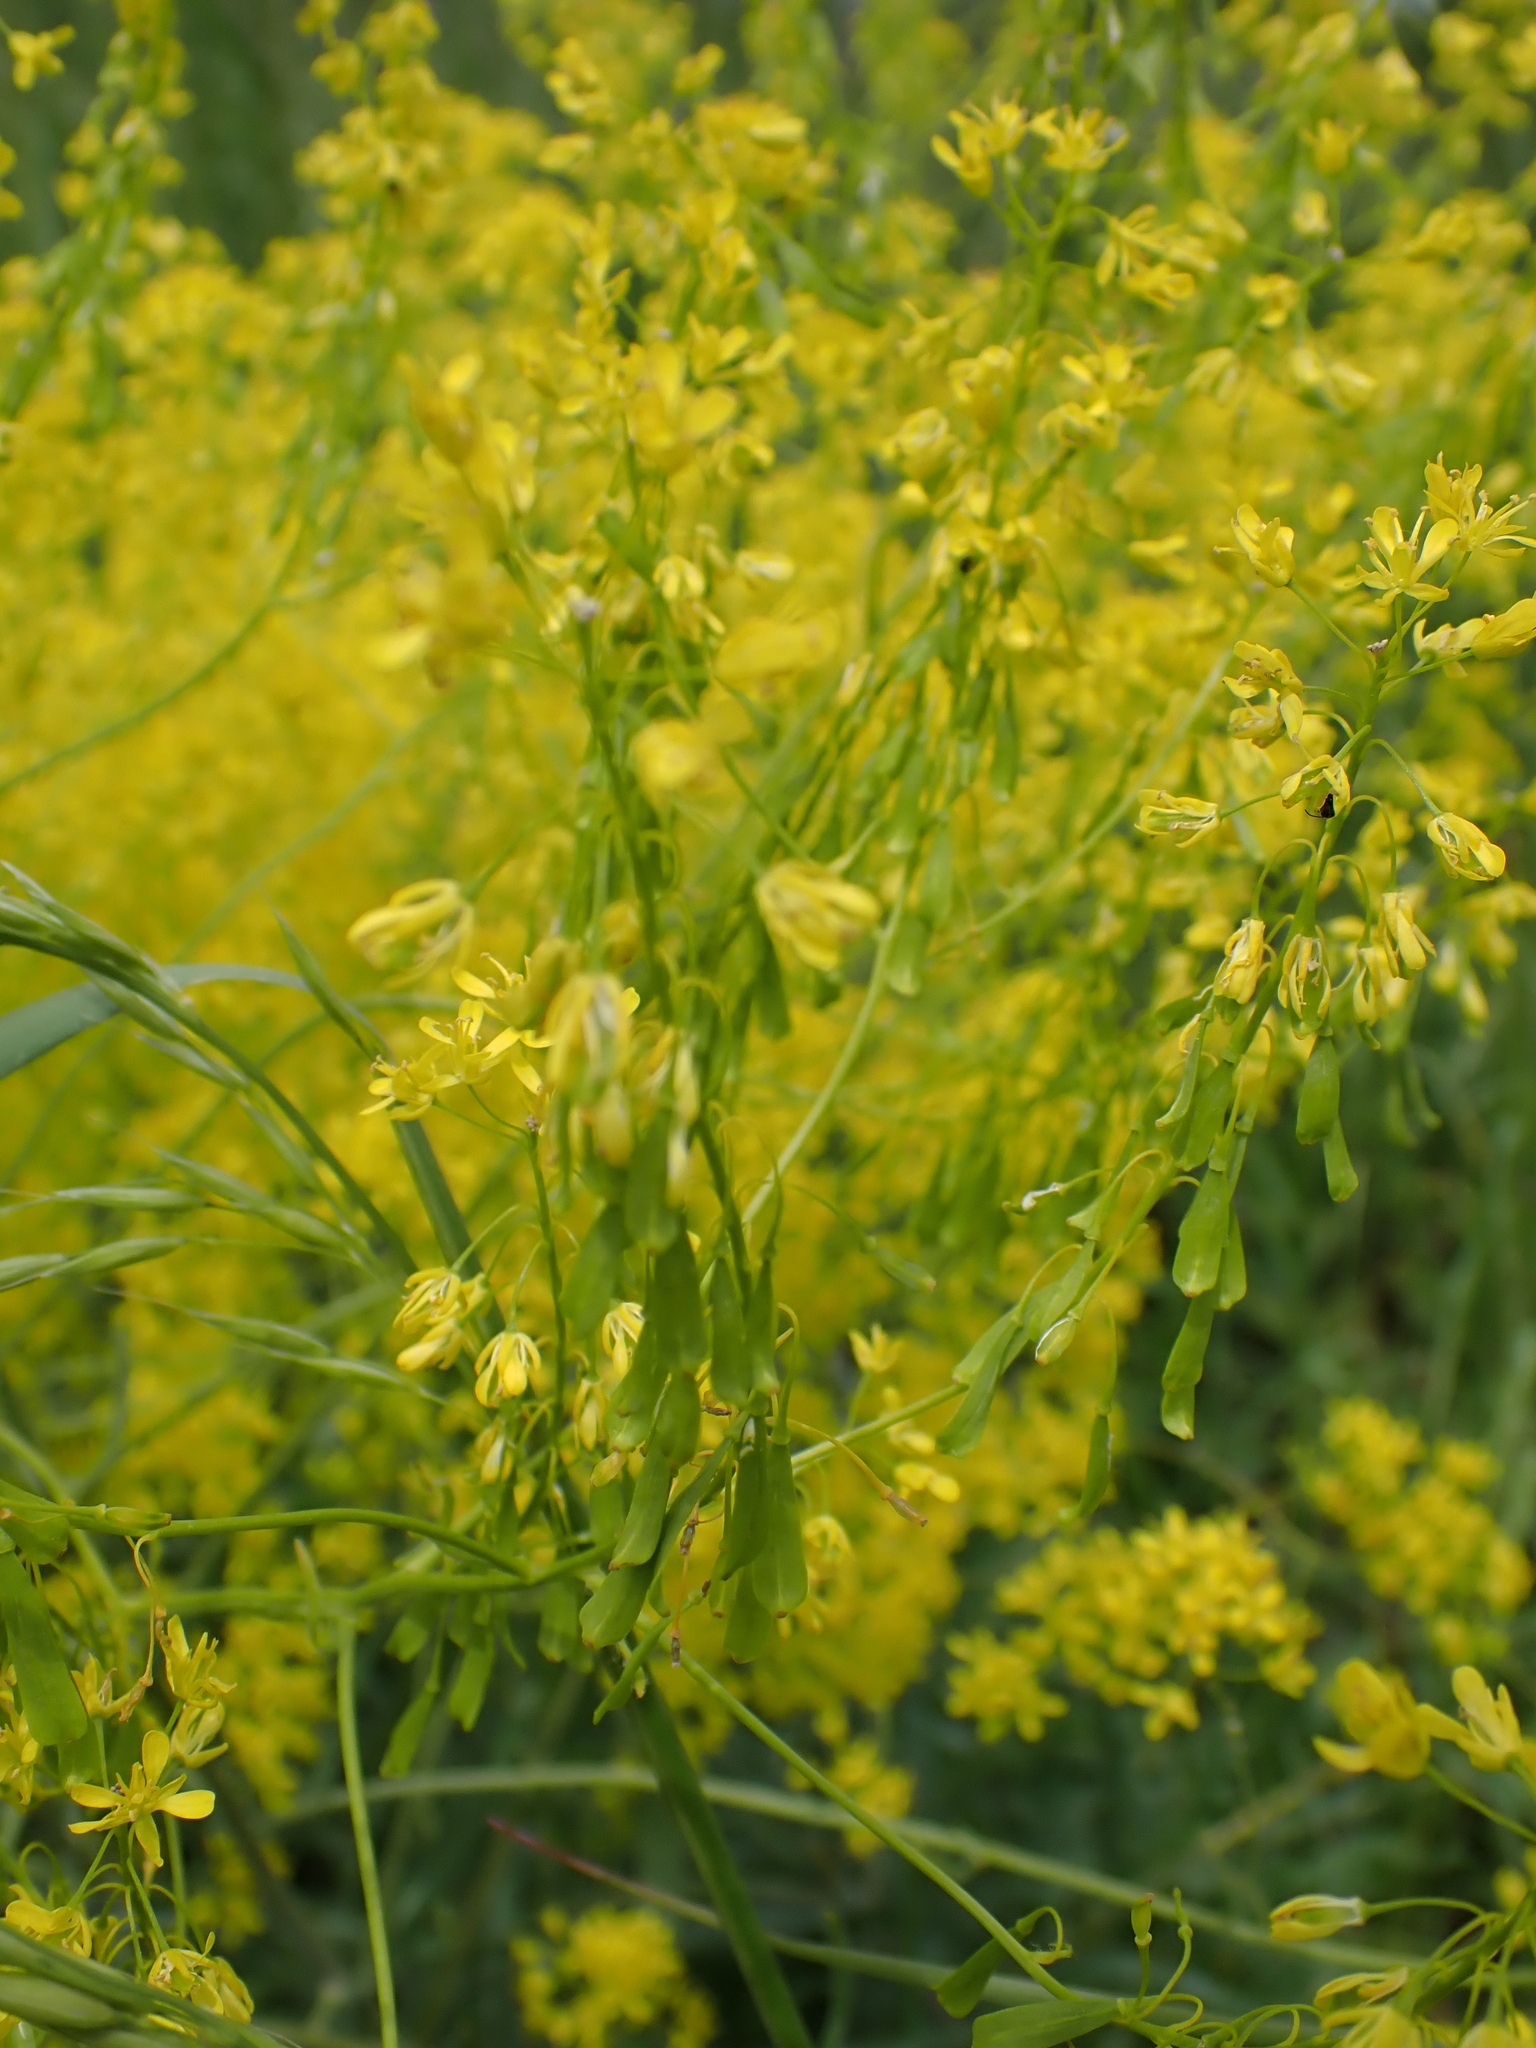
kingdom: Plantae
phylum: Tracheophyta
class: Magnoliopsida
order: Brassicales
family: Brassicaceae
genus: Isatis
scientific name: Isatis tinctoria
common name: Woad
